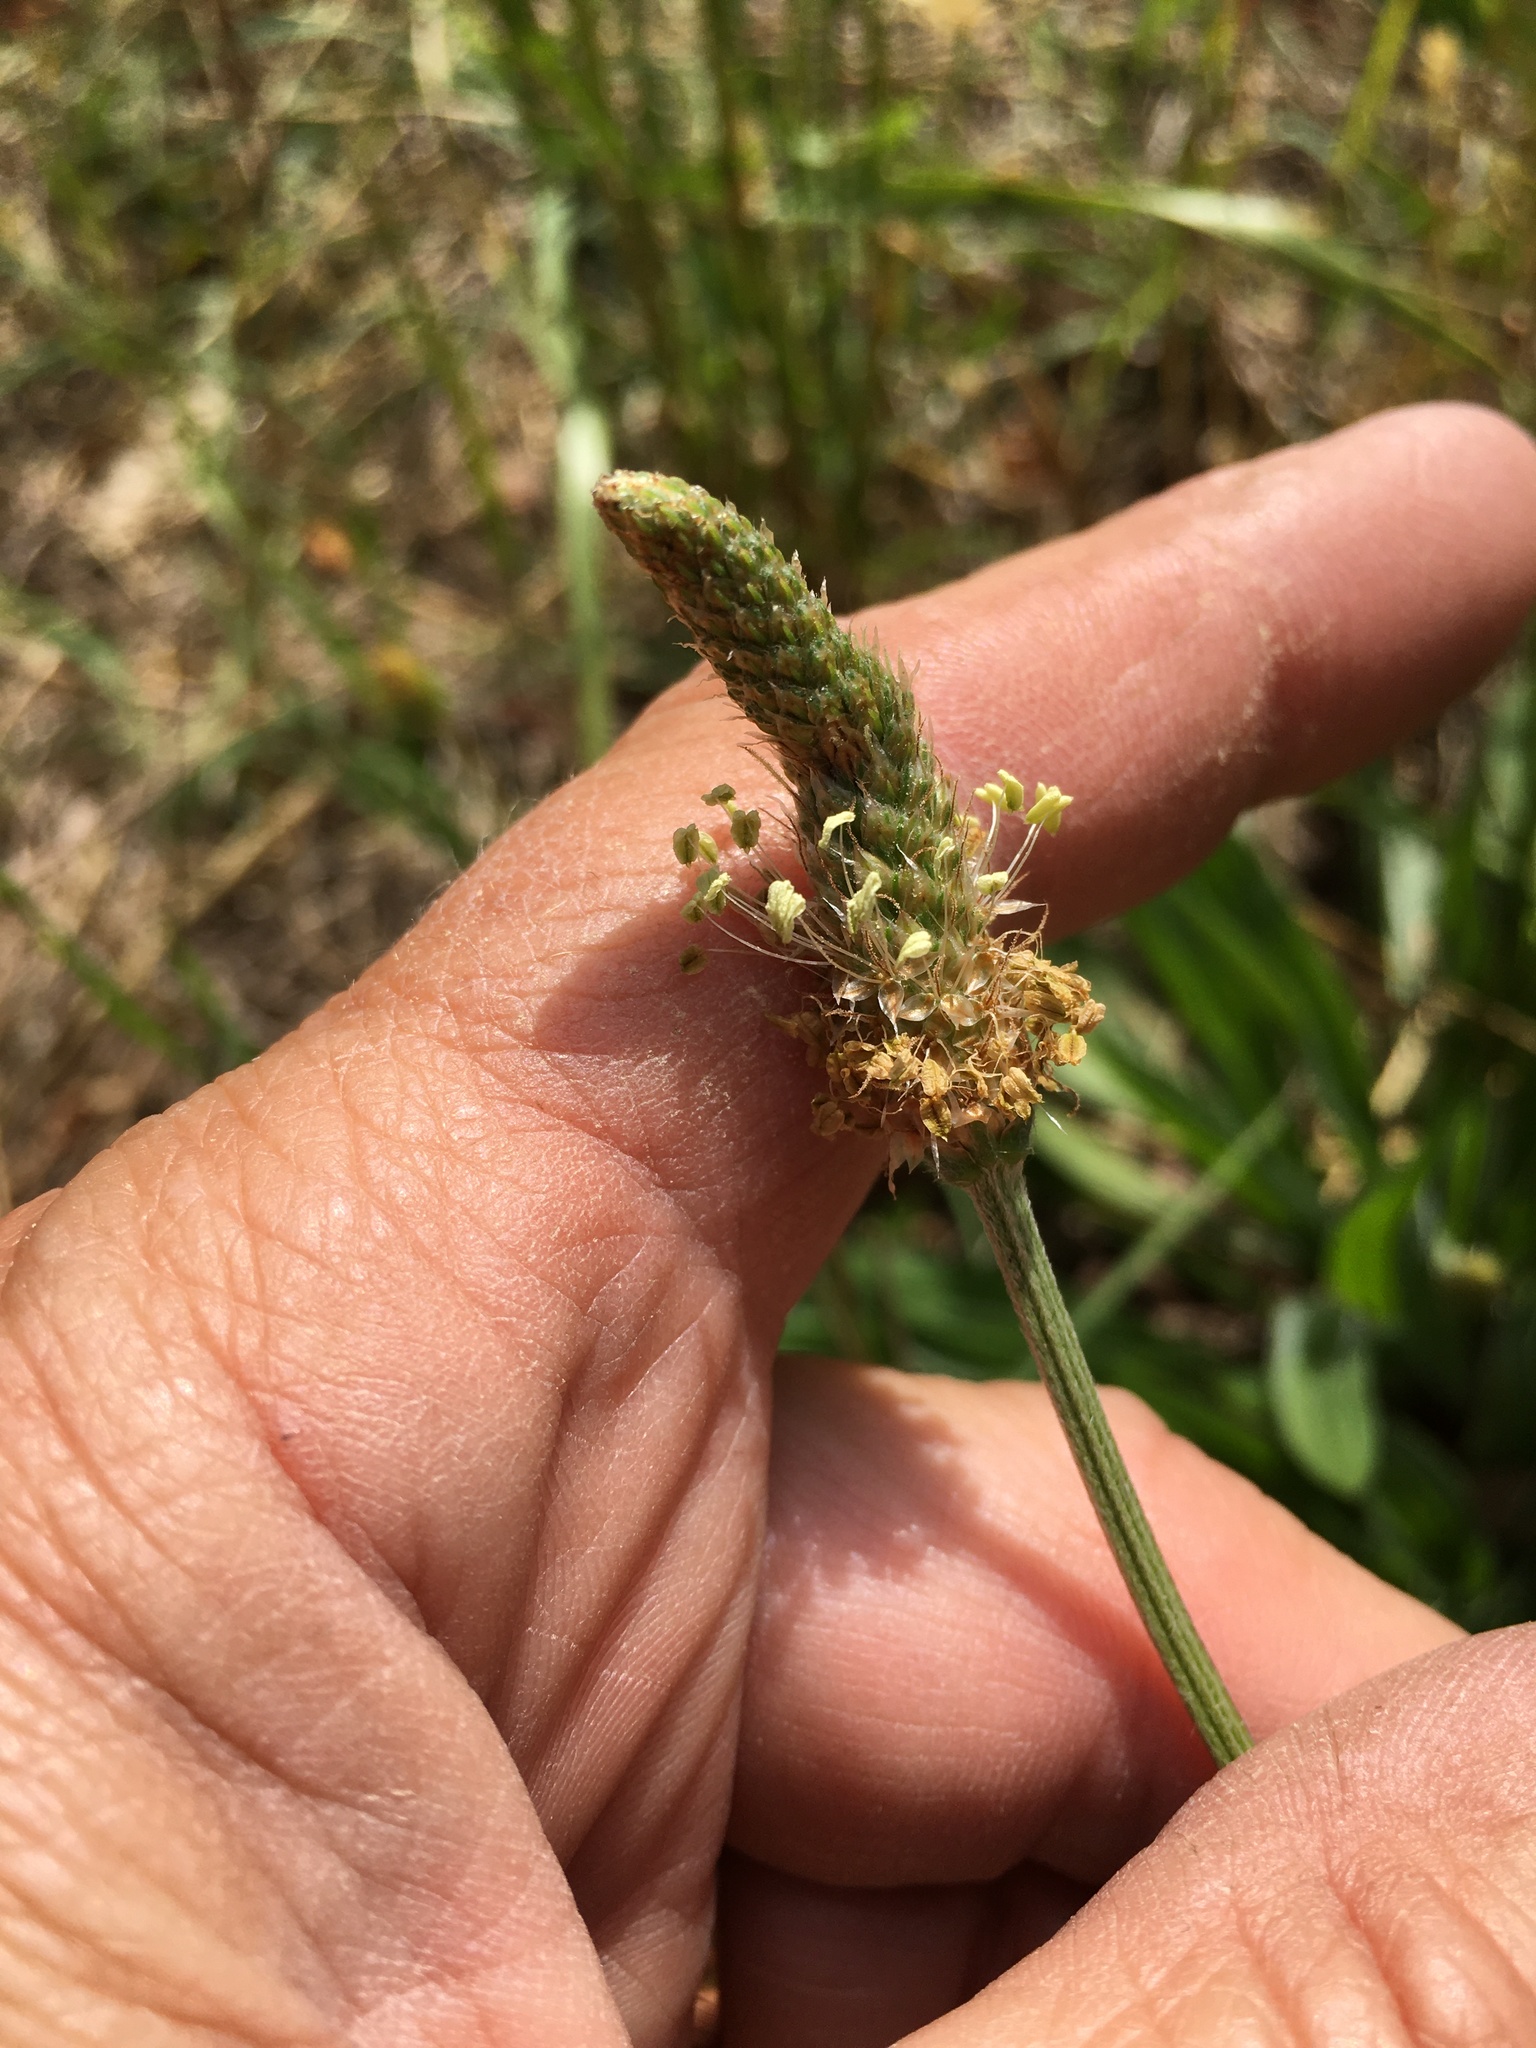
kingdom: Plantae
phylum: Tracheophyta
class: Magnoliopsida
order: Lamiales
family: Plantaginaceae
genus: Plantago
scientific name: Plantago lanceolata
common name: Ribwort plantain
